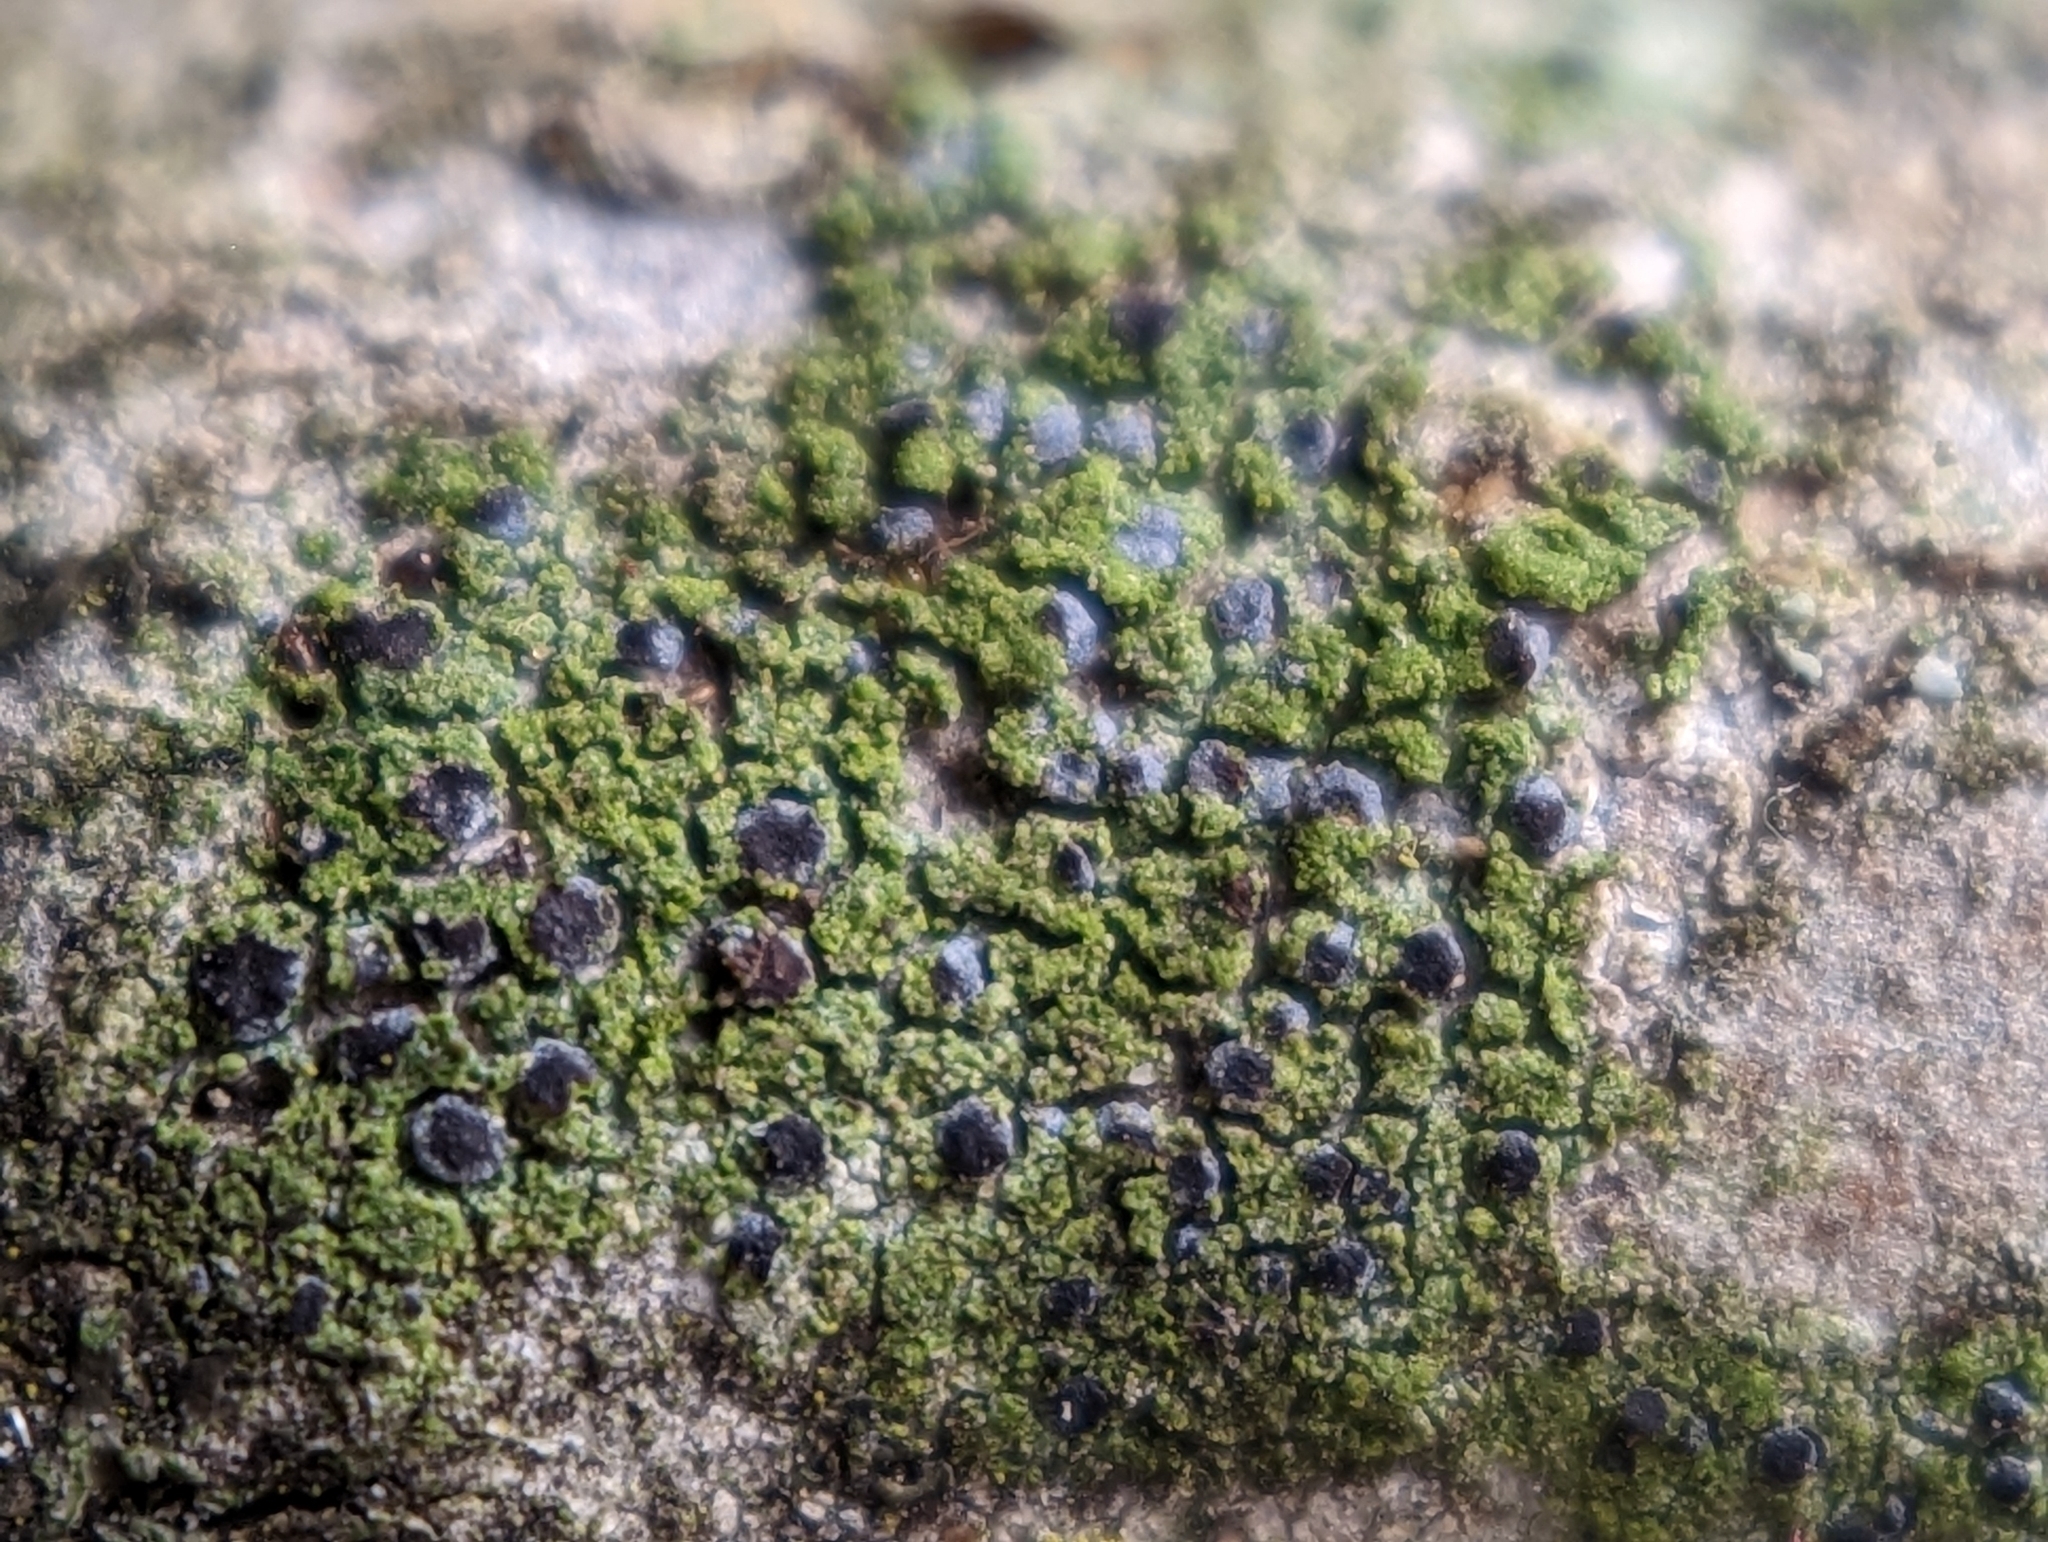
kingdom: Fungi
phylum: Ascomycota
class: Arthoniomycetes
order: Arthoniales
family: Chrysotrichaceae
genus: Chrysothrix
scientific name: Chrysothrix caesia
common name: Frosted comma lichen
